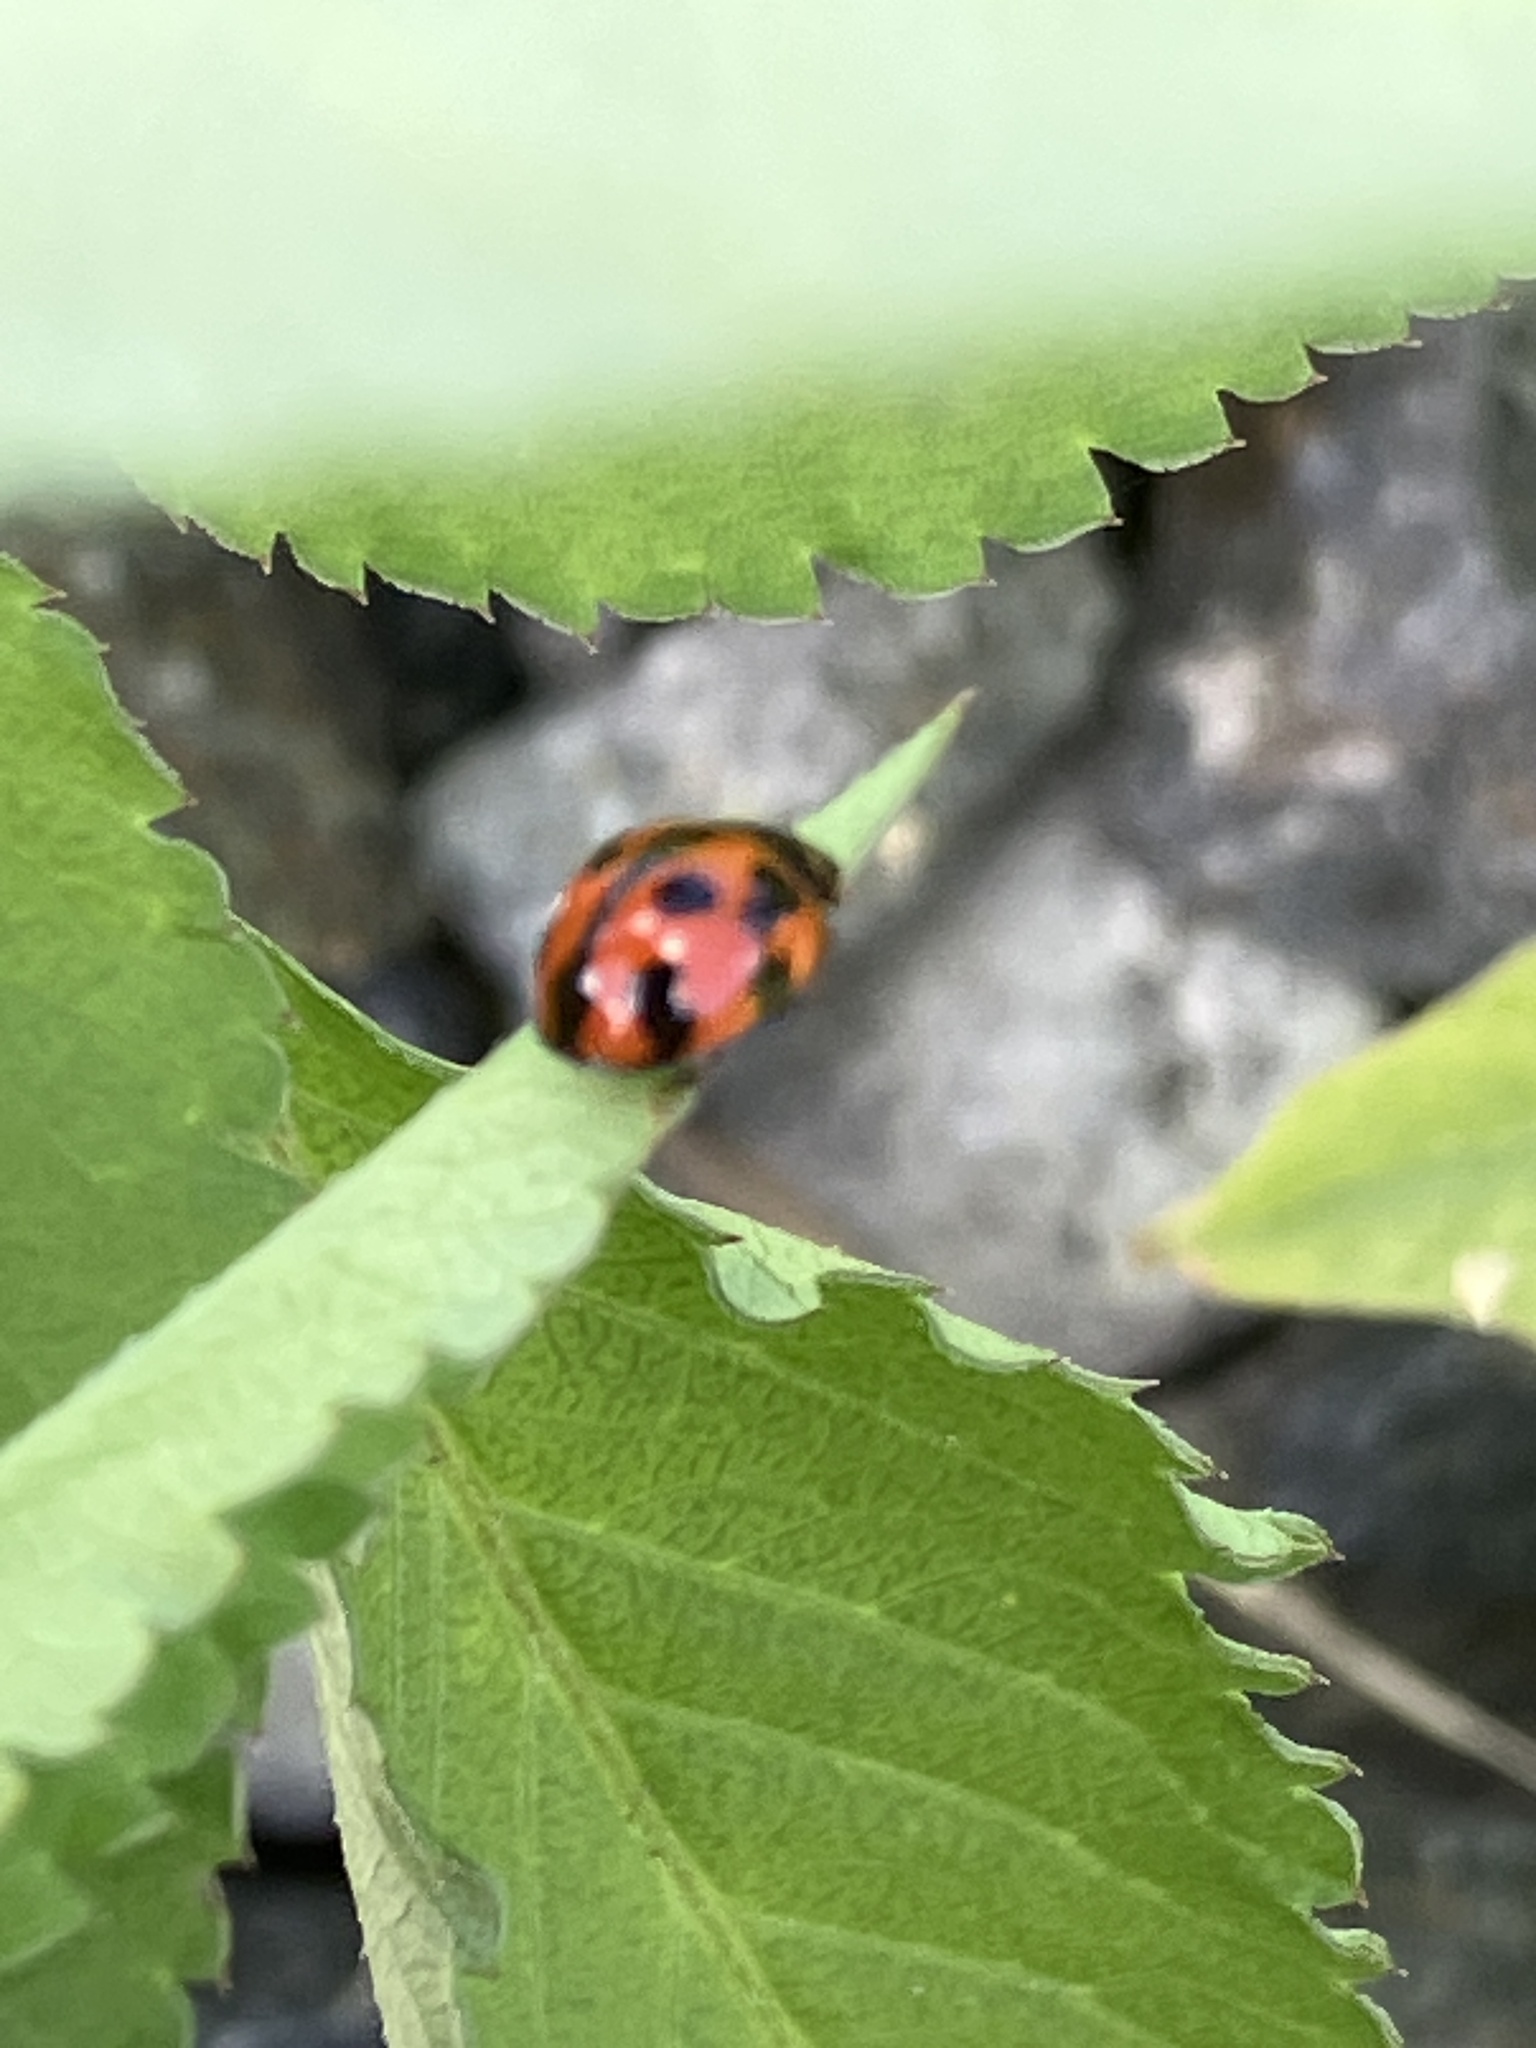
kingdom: Animalia
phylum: Arthropoda
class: Insecta
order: Coleoptera
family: Coccinellidae
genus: Coelophora
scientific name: Coelophora inaequalis
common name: Common australian lady beetle
